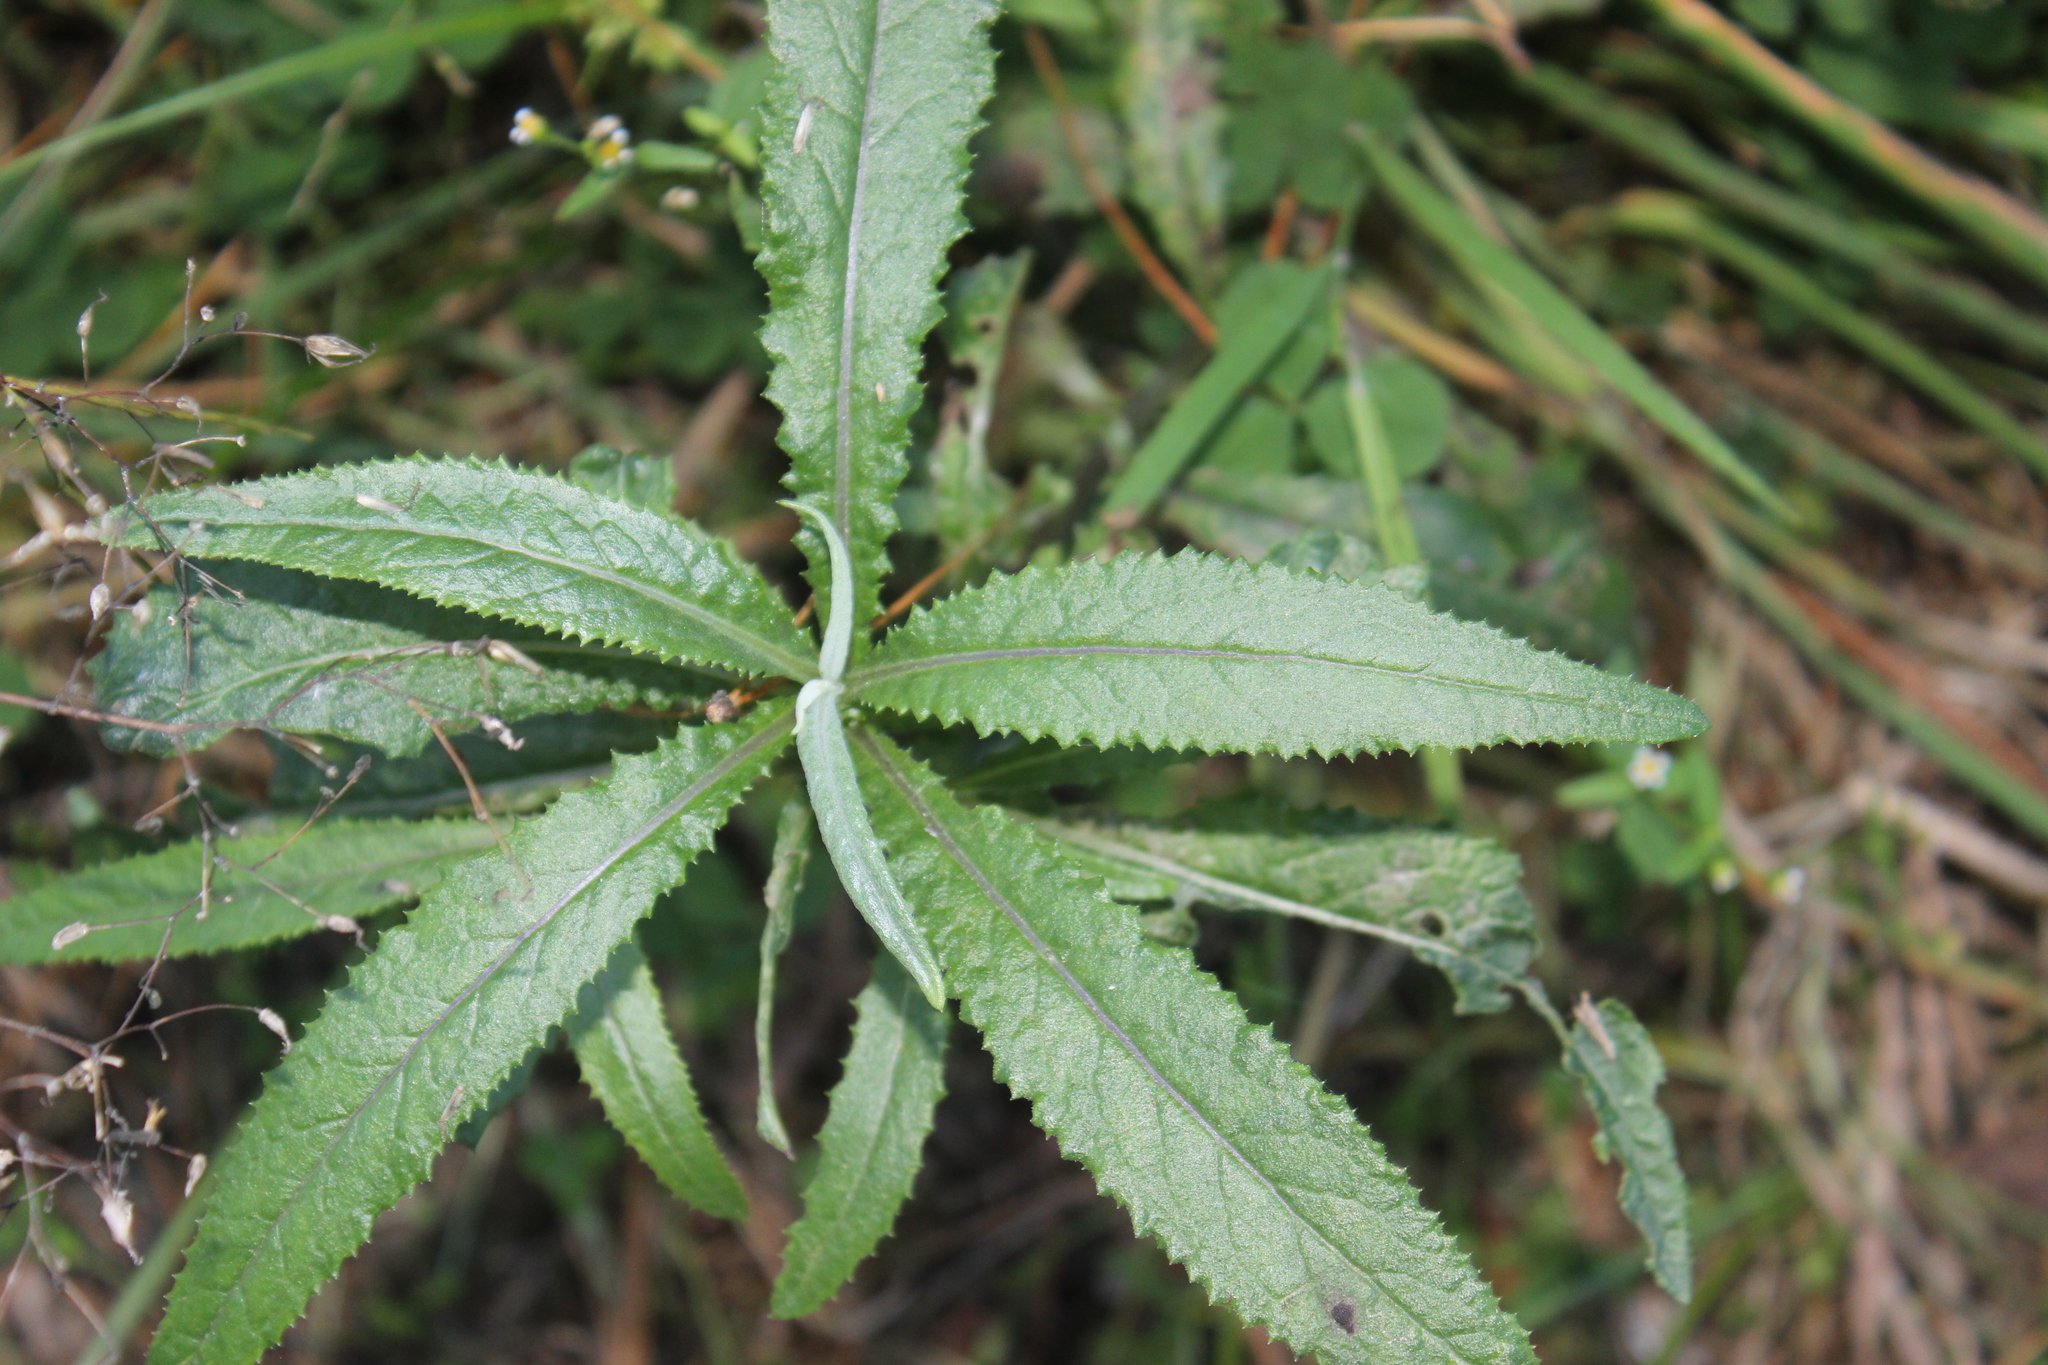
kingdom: Plantae
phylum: Tracheophyta
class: Magnoliopsida
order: Asterales
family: Asteraceae
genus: Senecio
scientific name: Senecio minimus
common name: Toothed fireweed
